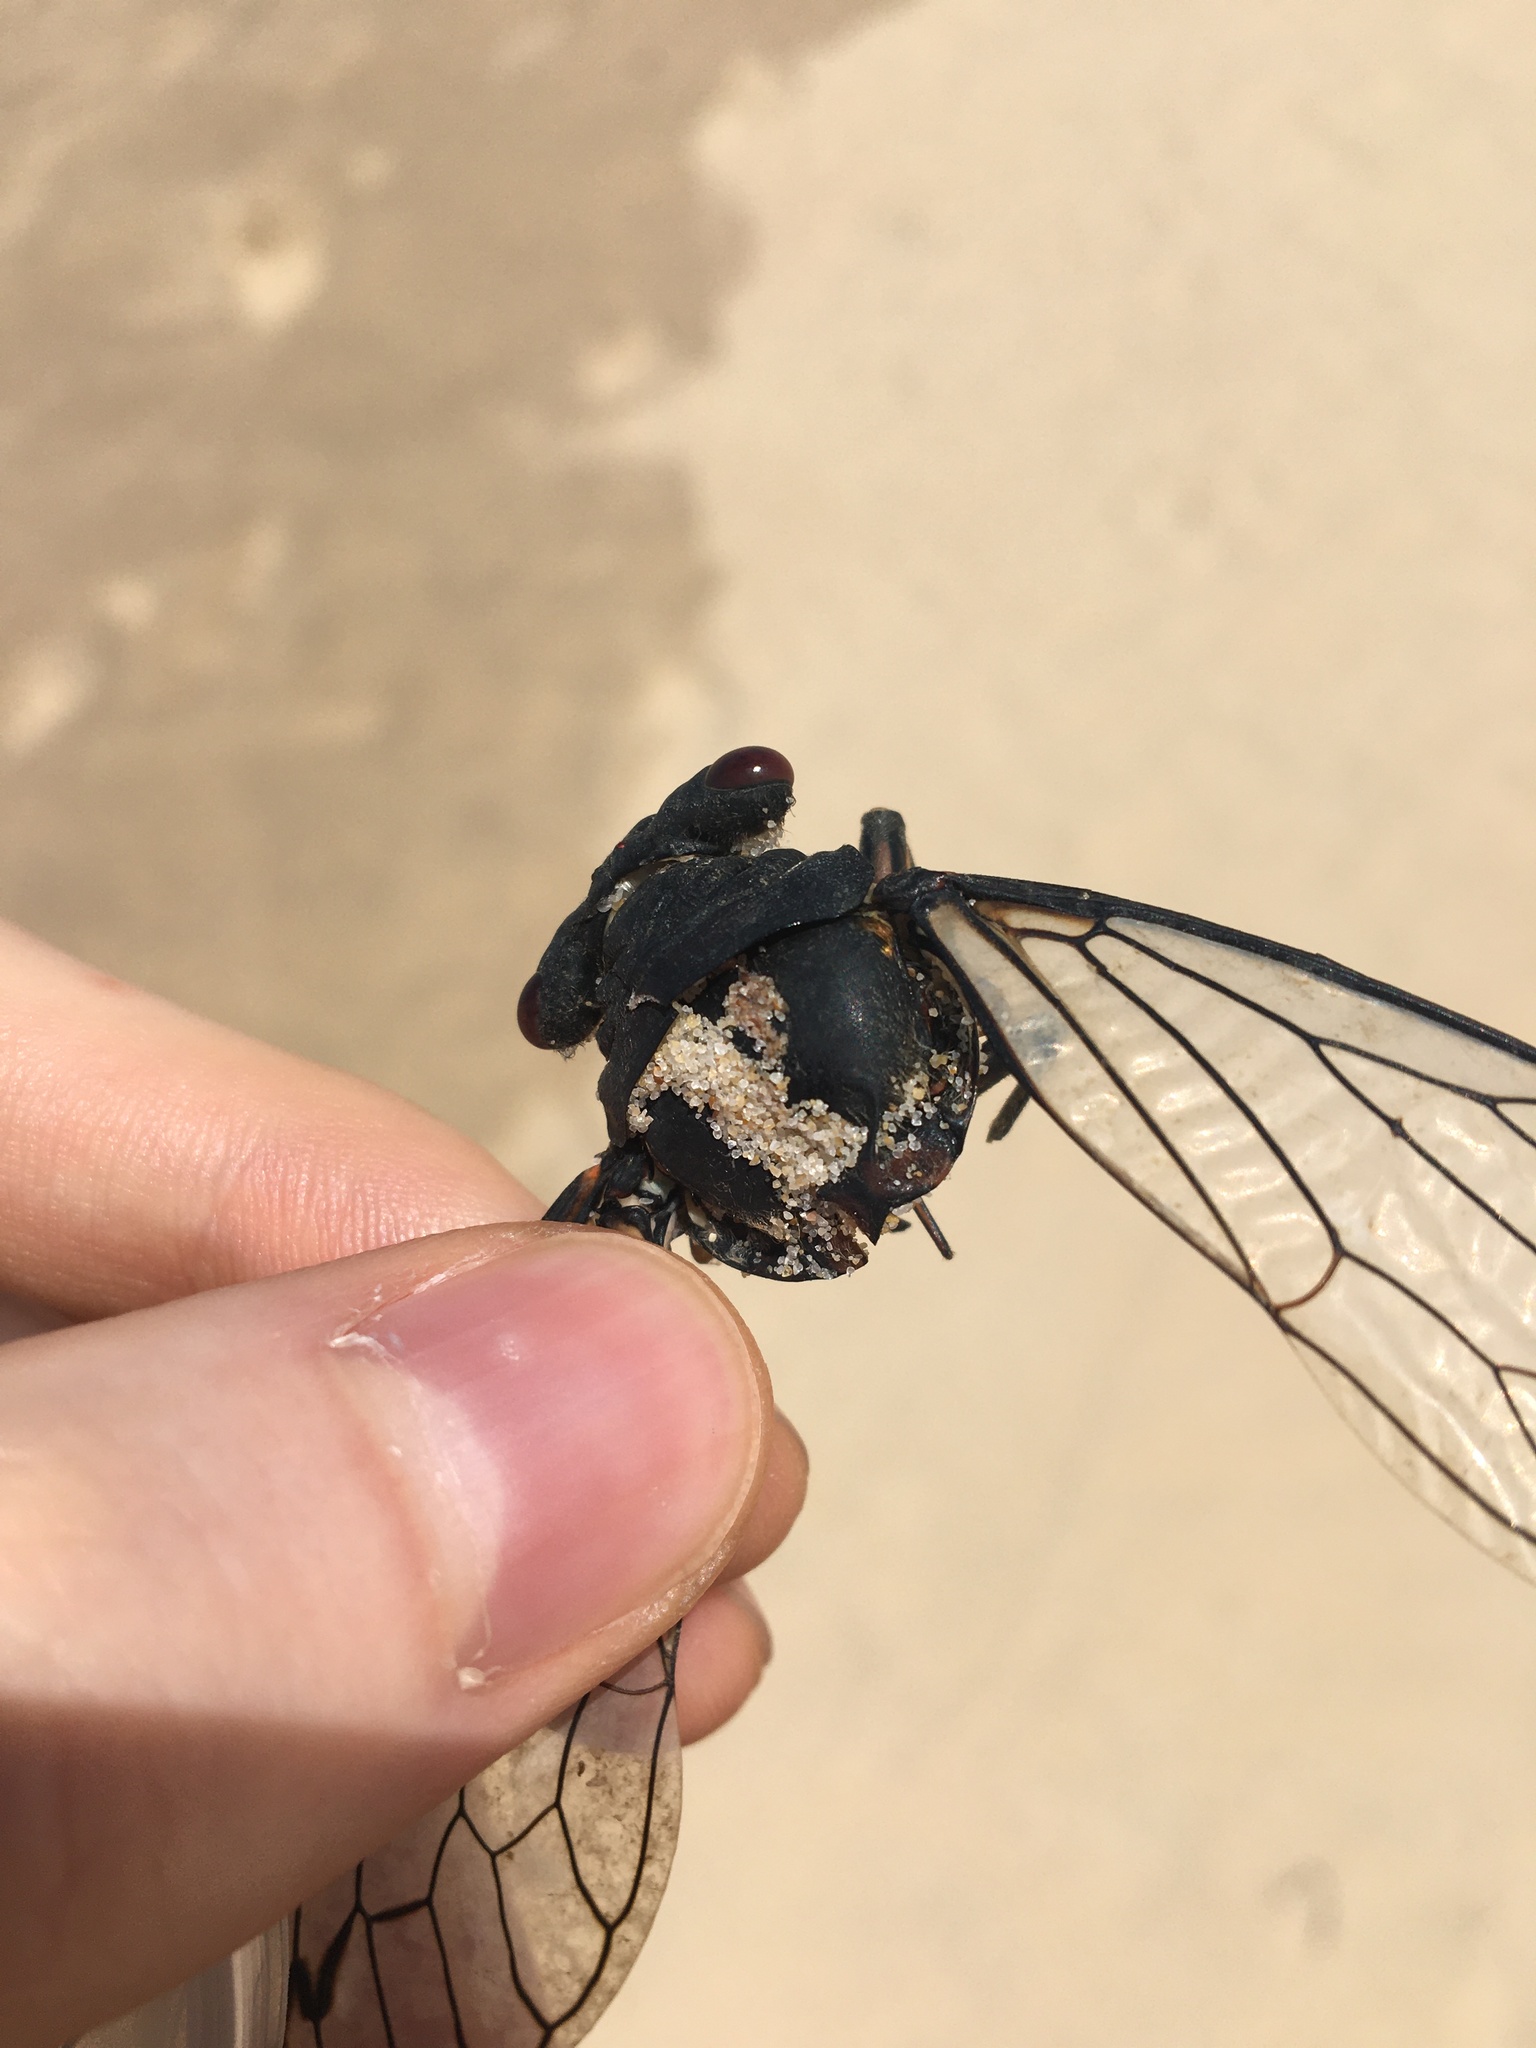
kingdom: Animalia
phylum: Arthropoda
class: Insecta
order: Hemiptera
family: Cicadidae
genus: Psaltoda
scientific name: Psaltoda moerens
